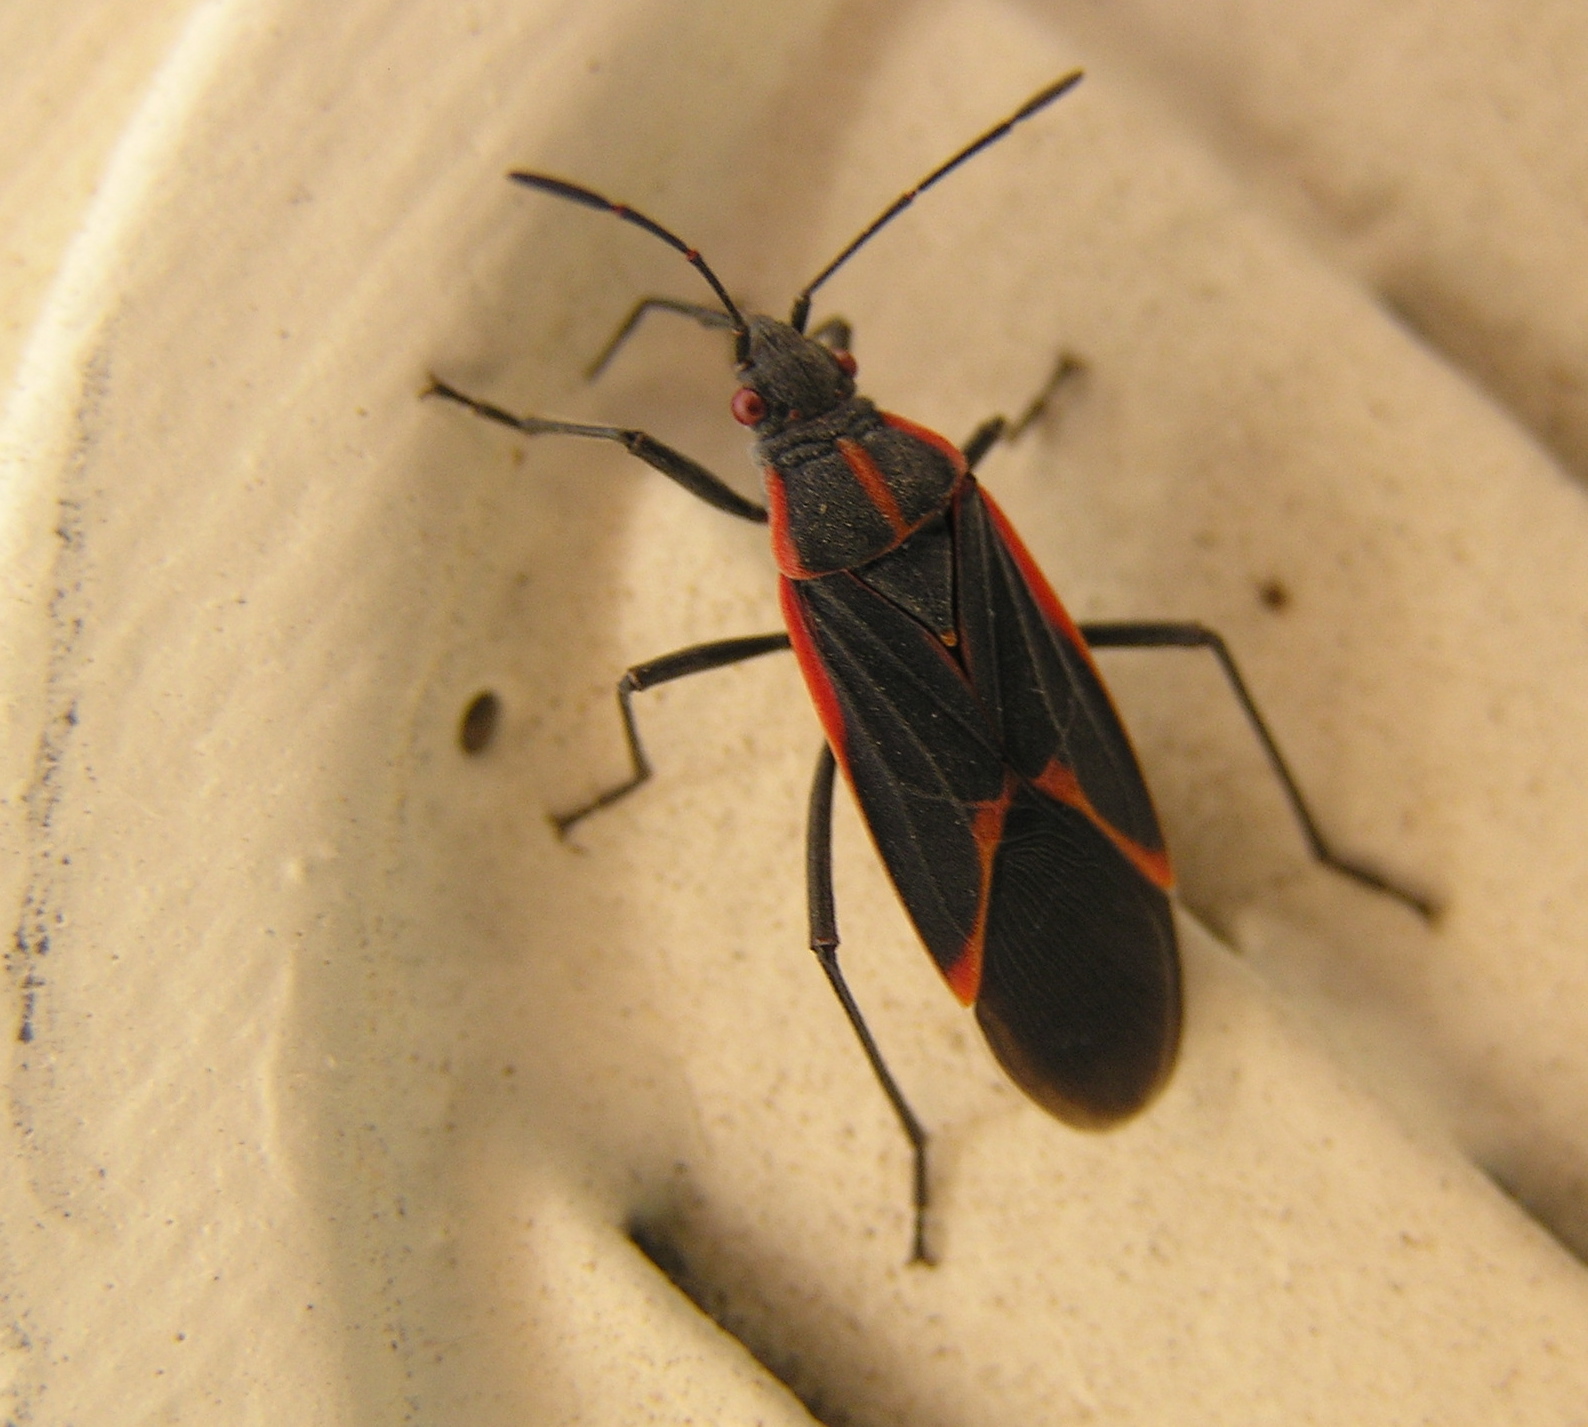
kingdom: Animalia
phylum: Arthropoda
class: Insecta
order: Hemiptera
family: Rhopalidae
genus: Boisea
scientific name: Boisea trivittata
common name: Boxelder bug
